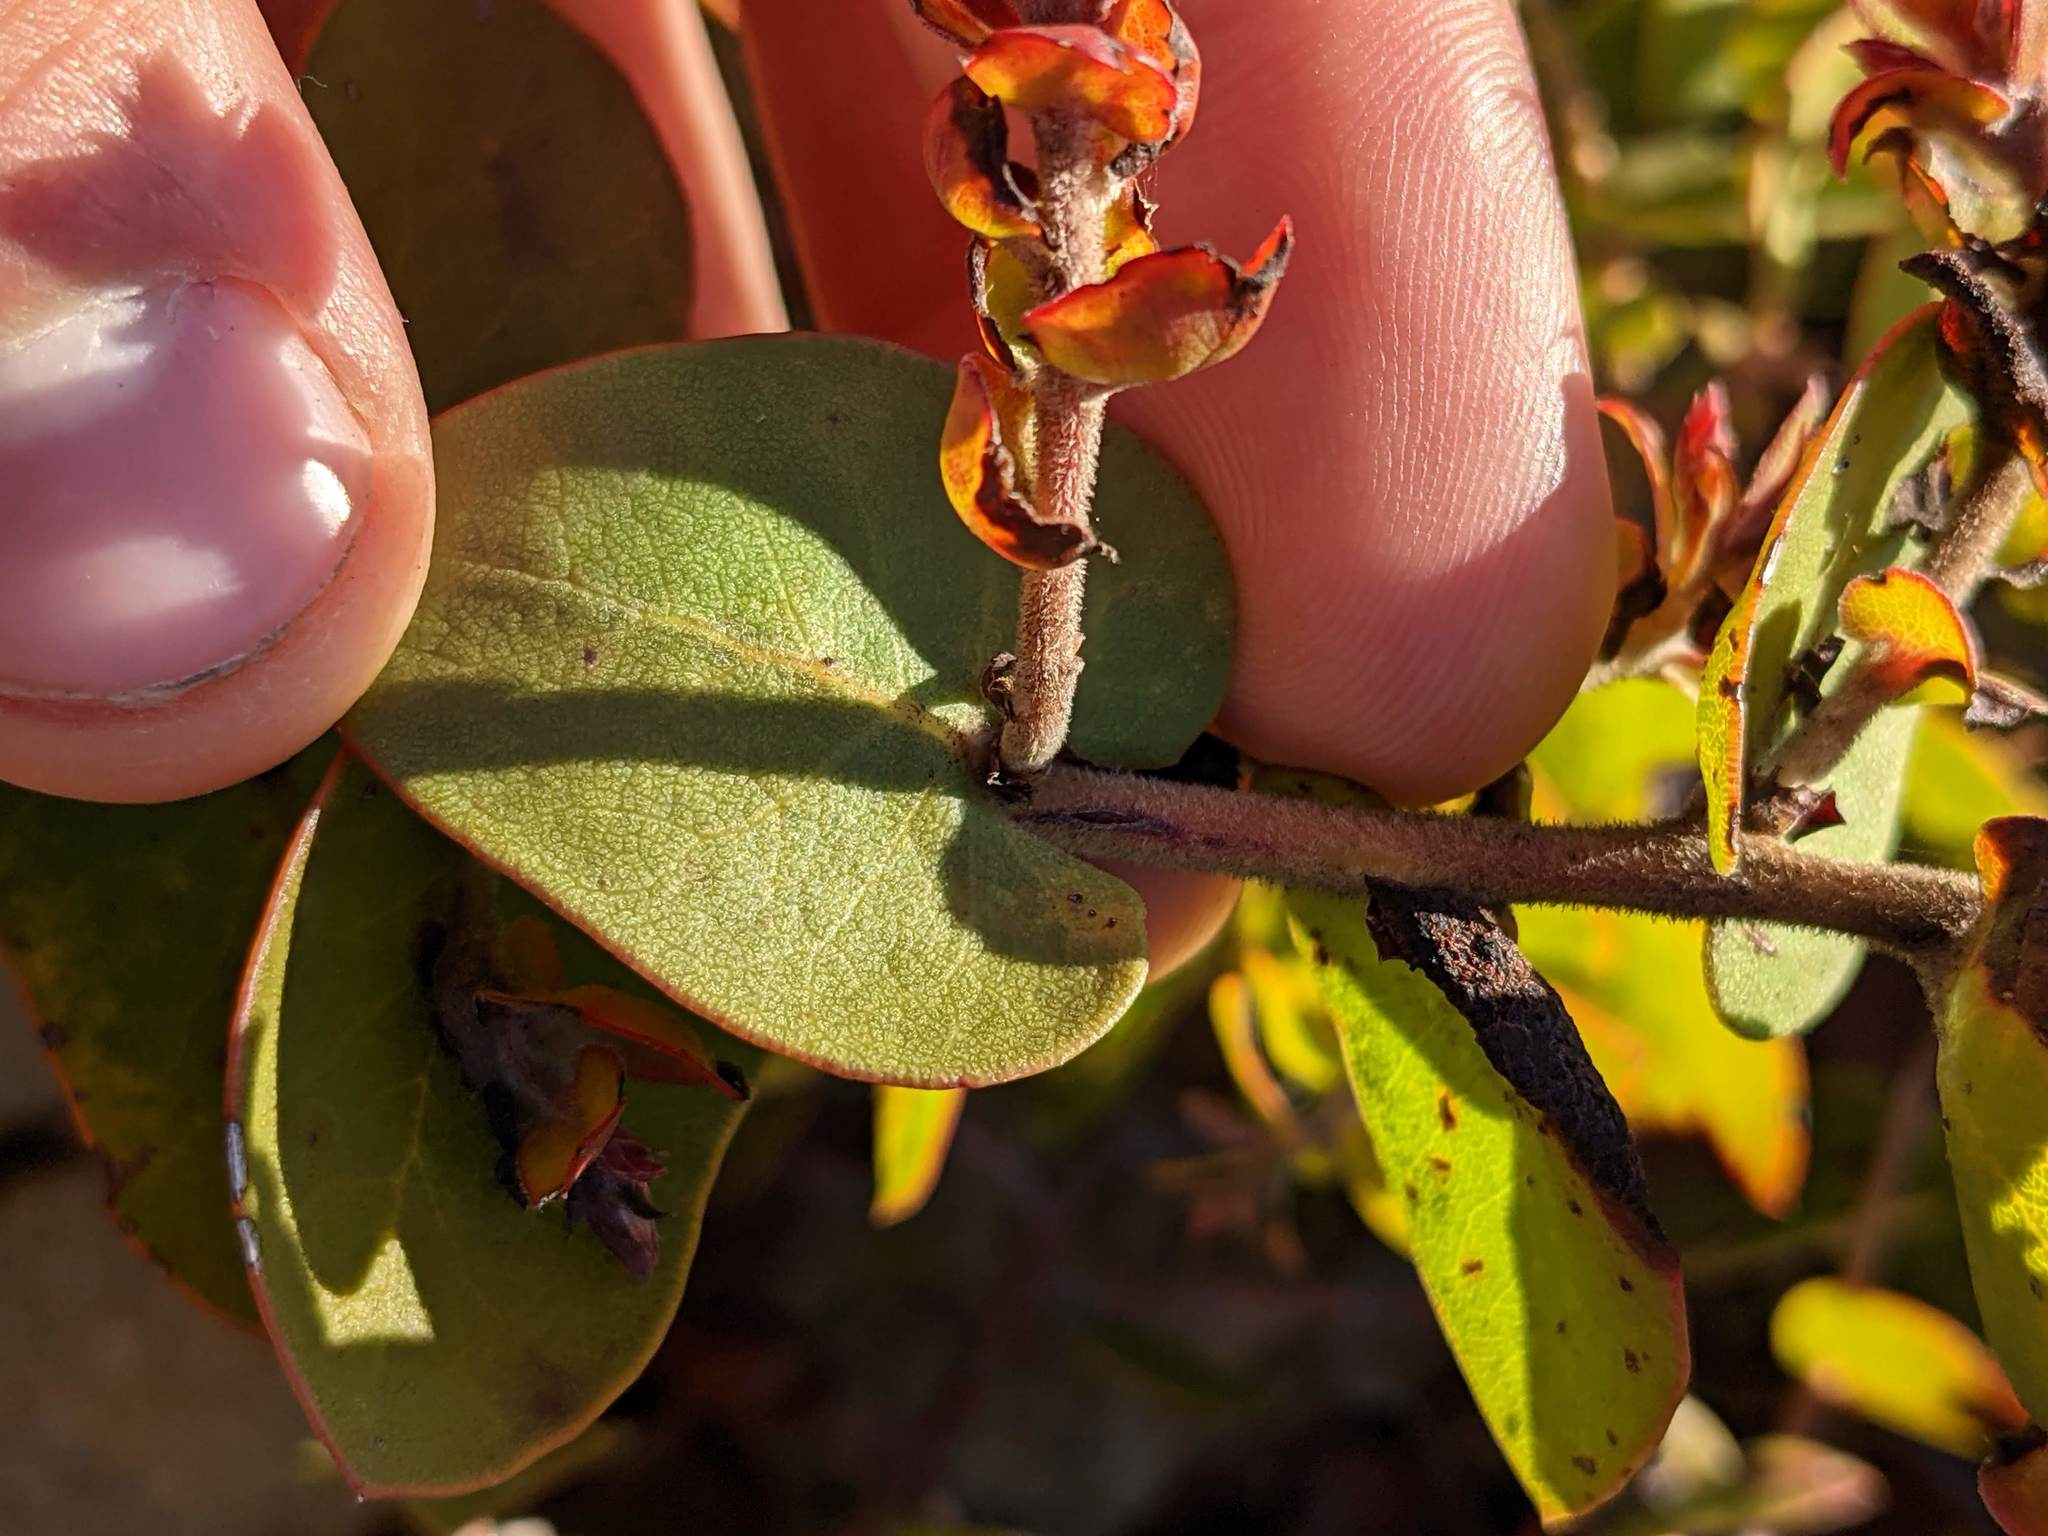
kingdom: Plantae
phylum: Tracheophyta
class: Magnoliopsida
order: Ericales
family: Ericaceae
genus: Arctostaphylos
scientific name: Arctostaphylos osoensis
